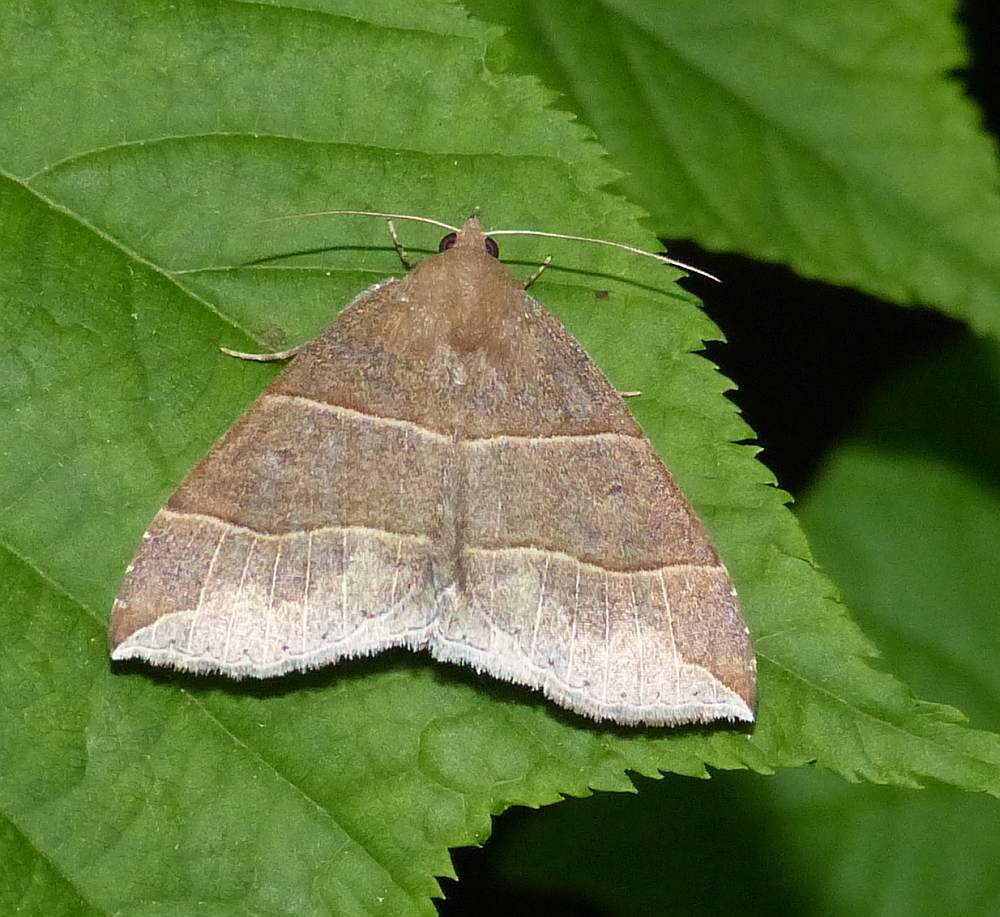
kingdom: Animalia
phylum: Arthropoda
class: Insecta
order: Lepidoptera
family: Erebidae
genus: Parallelia
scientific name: Parallelia bistriaris
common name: Maple looper moth
